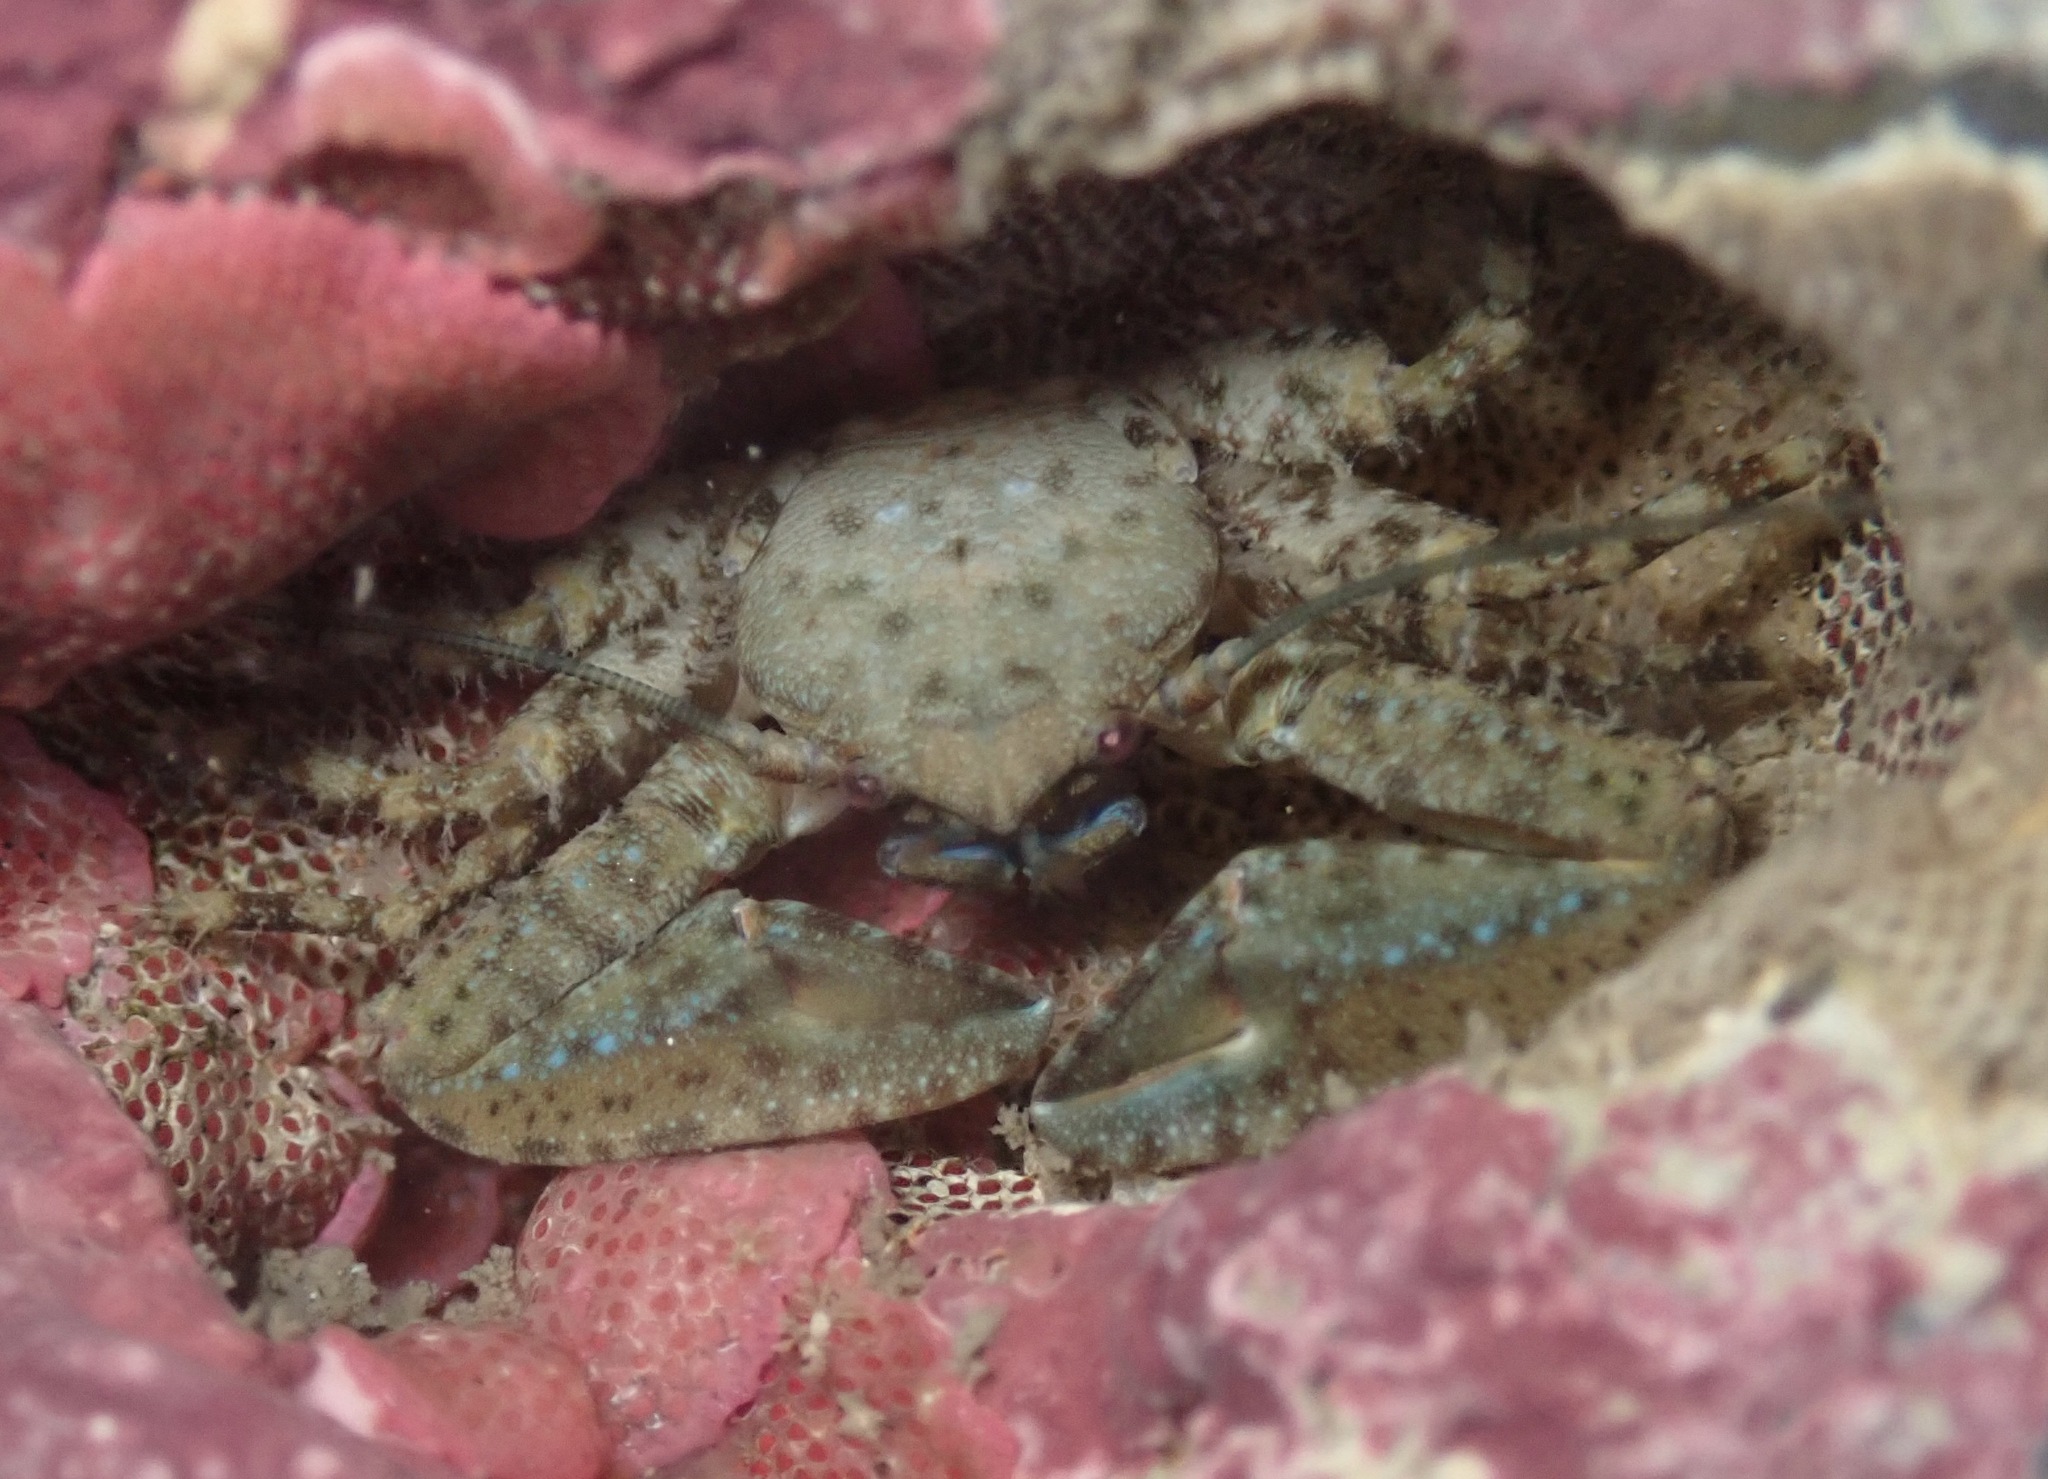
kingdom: Animalia
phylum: Arthropoda
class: Malacostraca
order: Decapoda
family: Porcellanidae
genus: Petrolisthes
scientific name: Petrolisthes manimaculis
